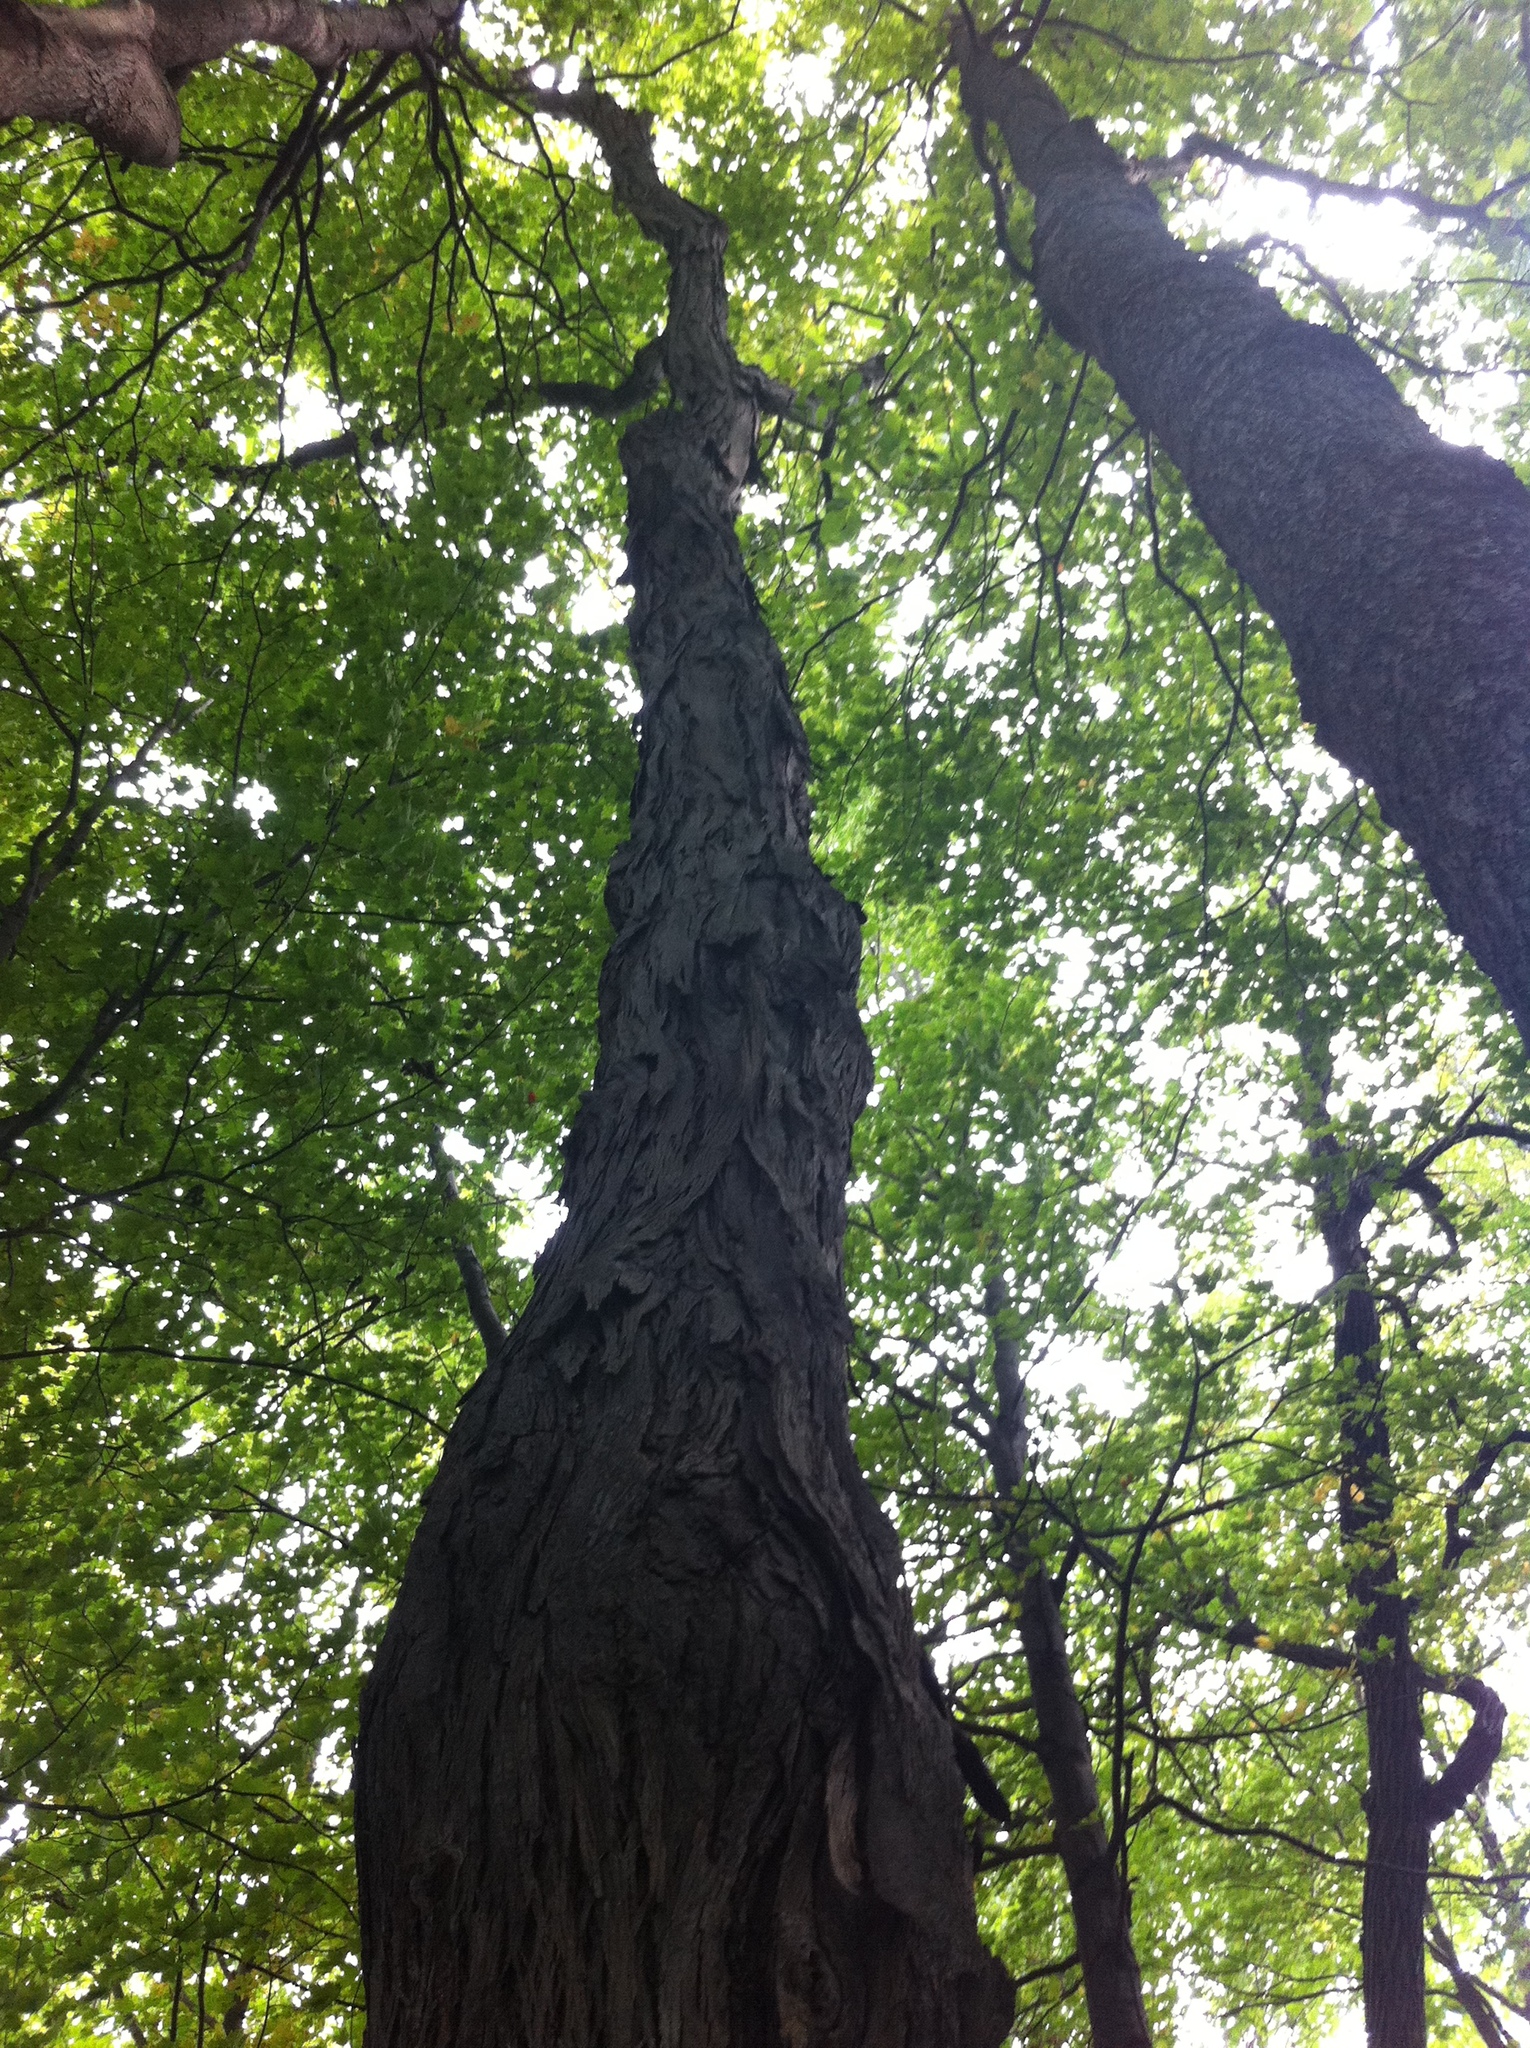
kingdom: Plantae
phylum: Tracheophyta
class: Magnoliopsida
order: Fagales
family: Juglandaceae
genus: Carya
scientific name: Carya ovata
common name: Shagbark hickory
